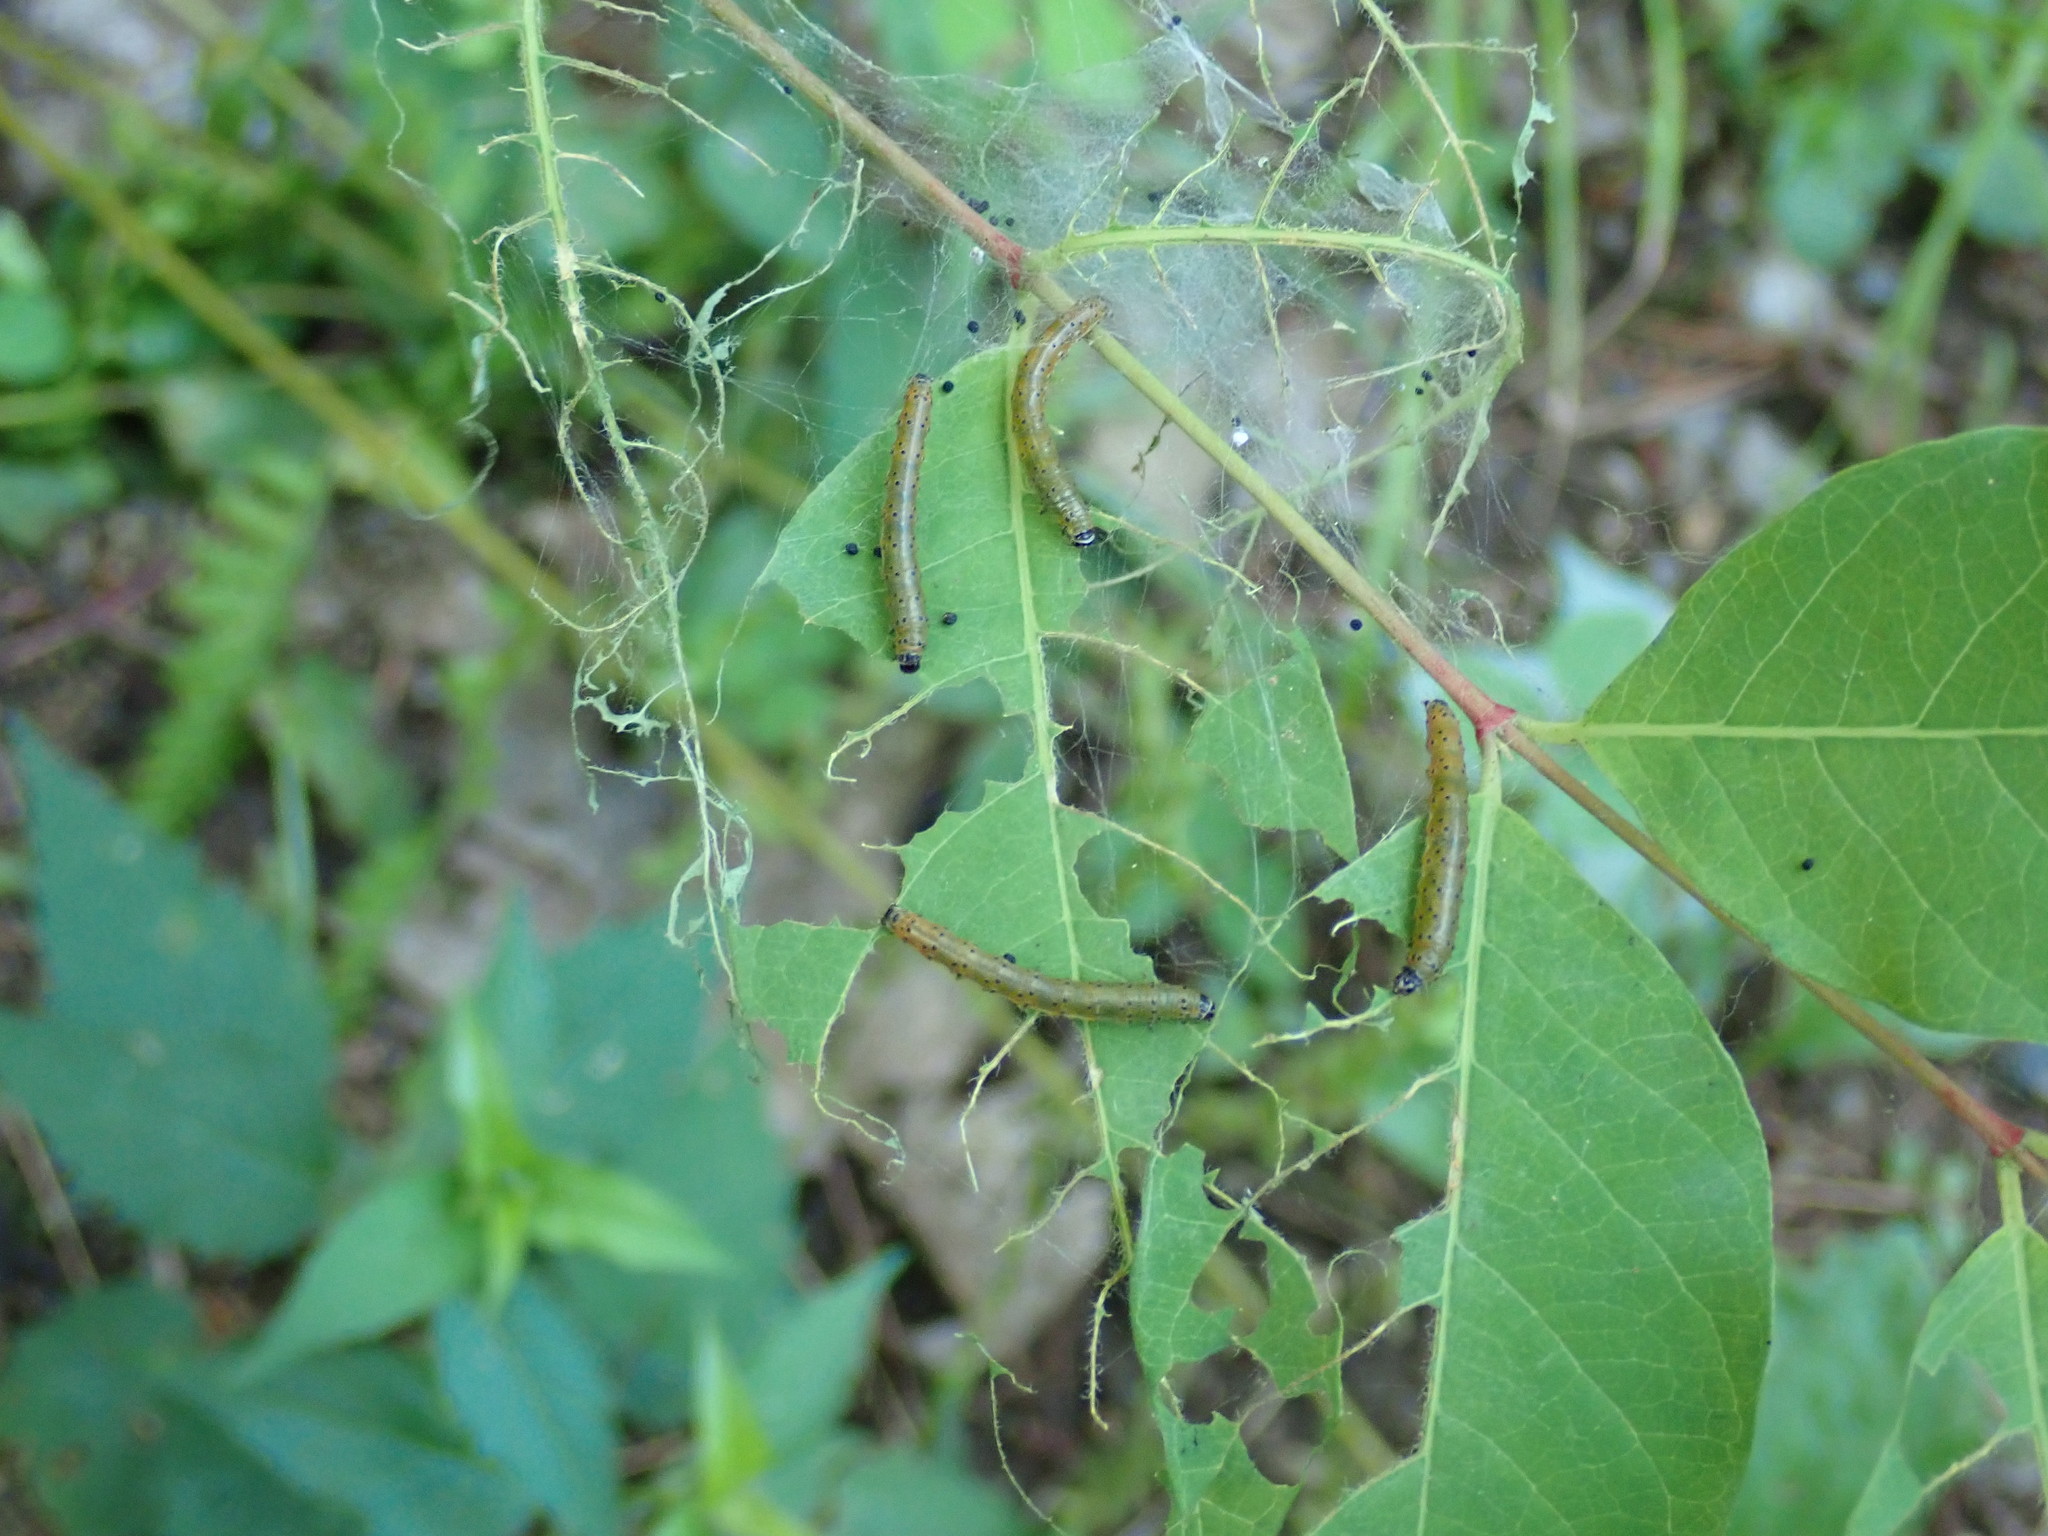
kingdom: Animalia
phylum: Arthropoda
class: Insecta
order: Lepidoptera
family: Crambidae
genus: Saucrobotys
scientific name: Saucrobotys futilalis
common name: Dogbane saucrobotys moth
